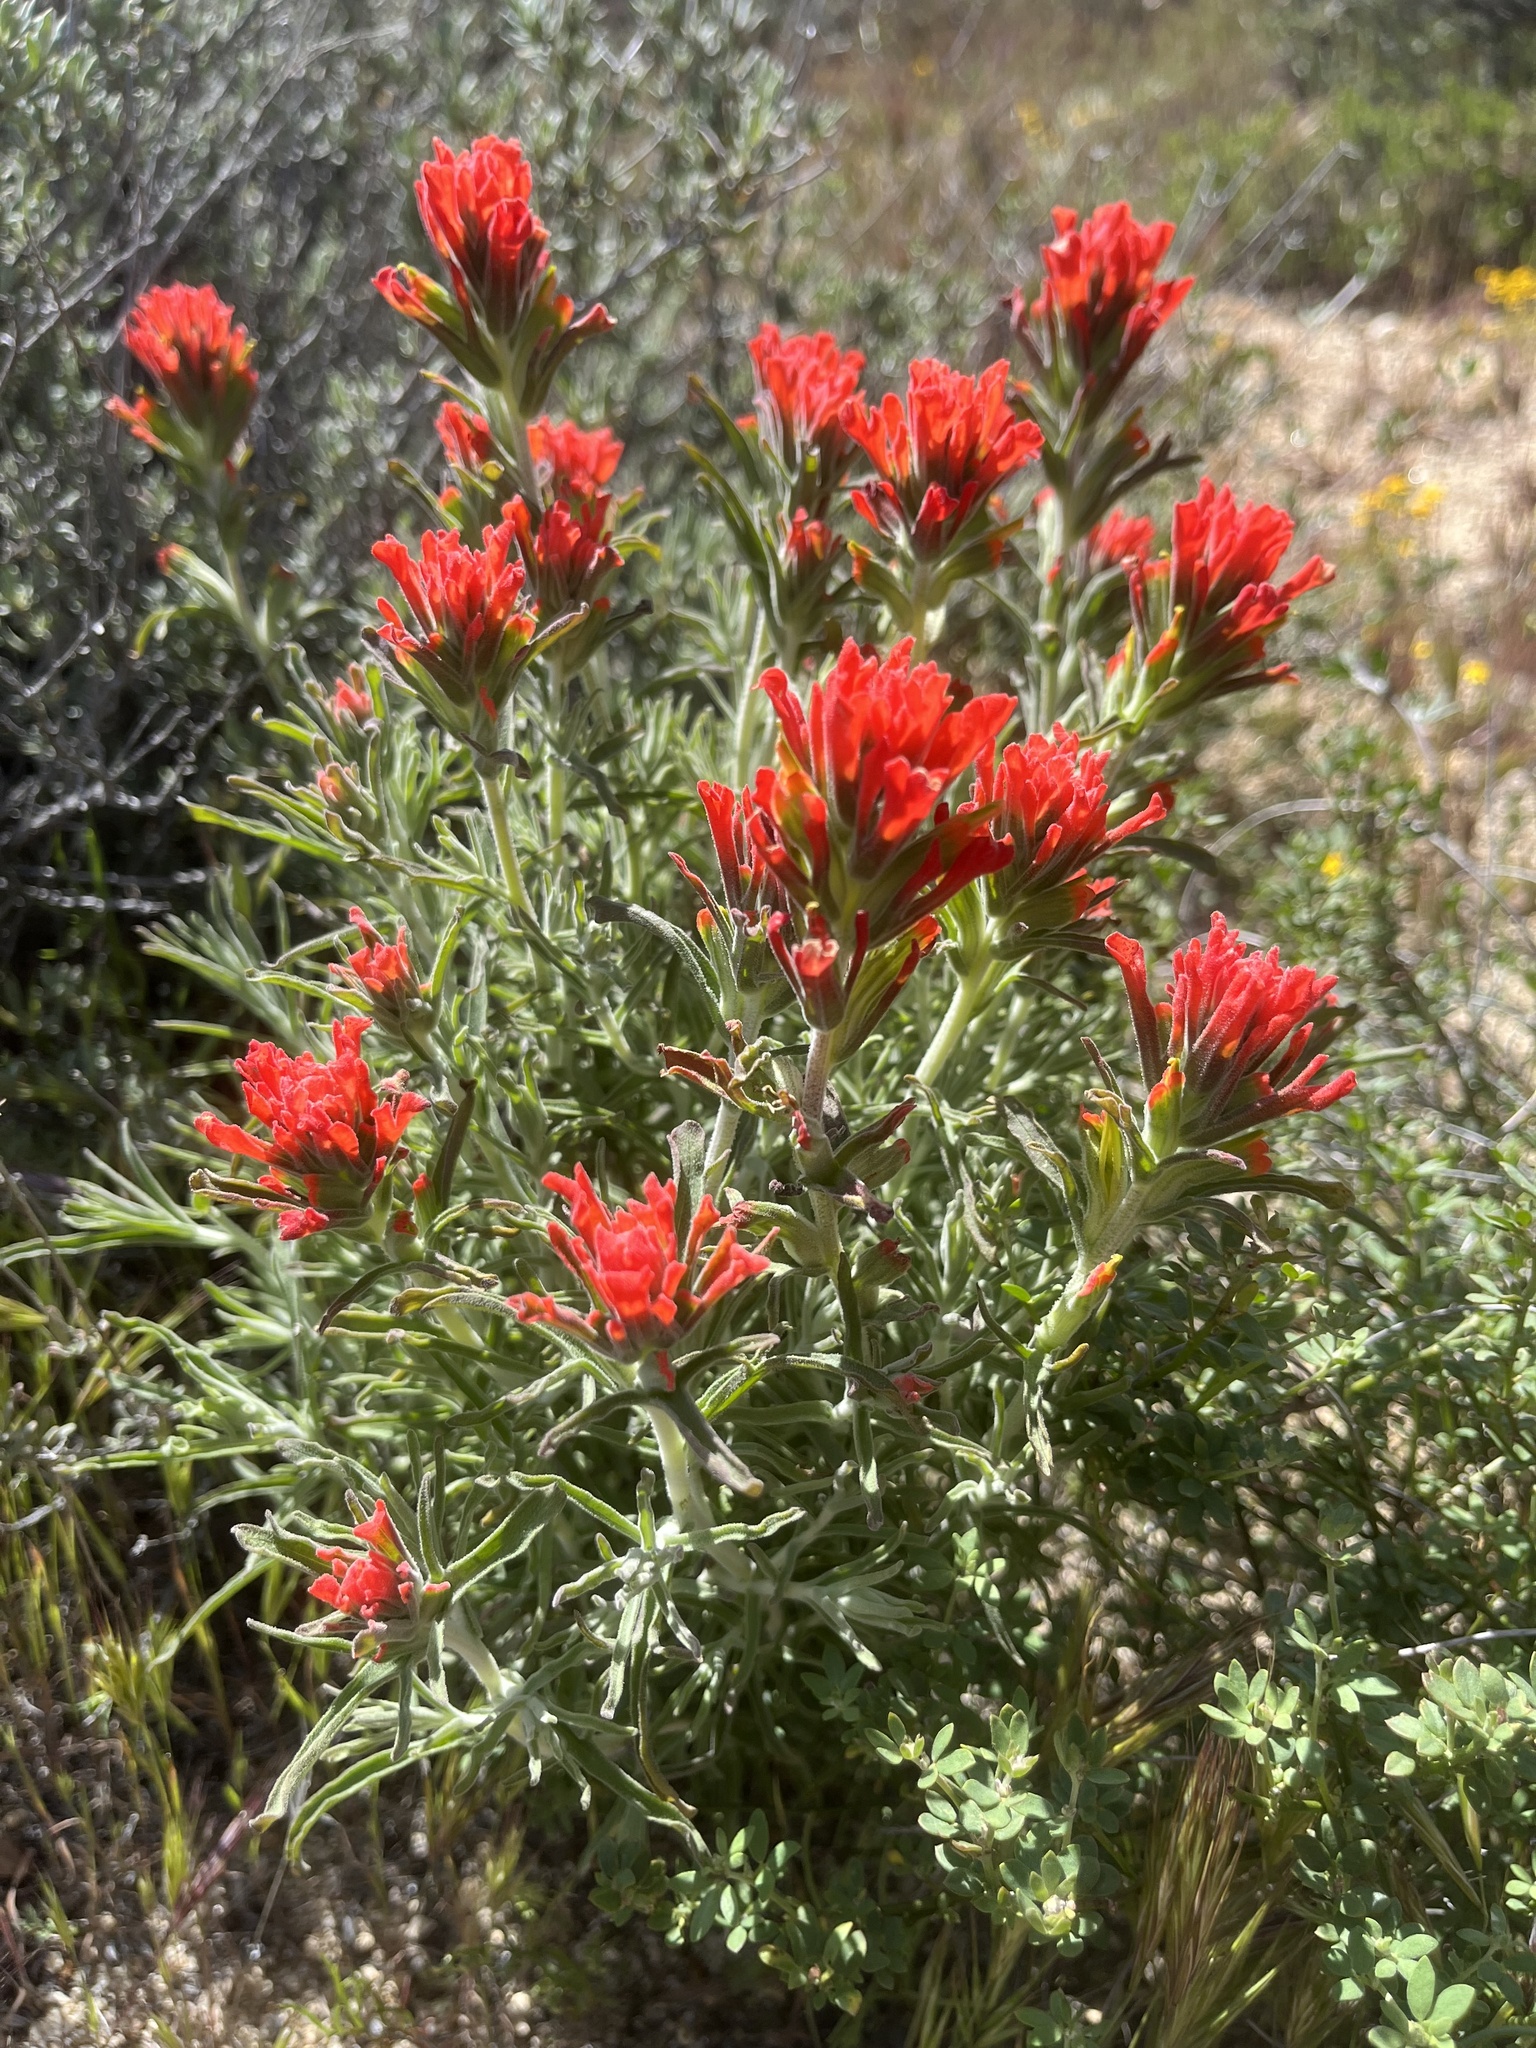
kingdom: Plantae
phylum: Tracheophyta
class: Magnoliopsida
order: Lamiales
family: Orobanchaceae
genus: Castilleja
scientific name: Castilleja foliolosa
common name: Woolly indian paintbrush
